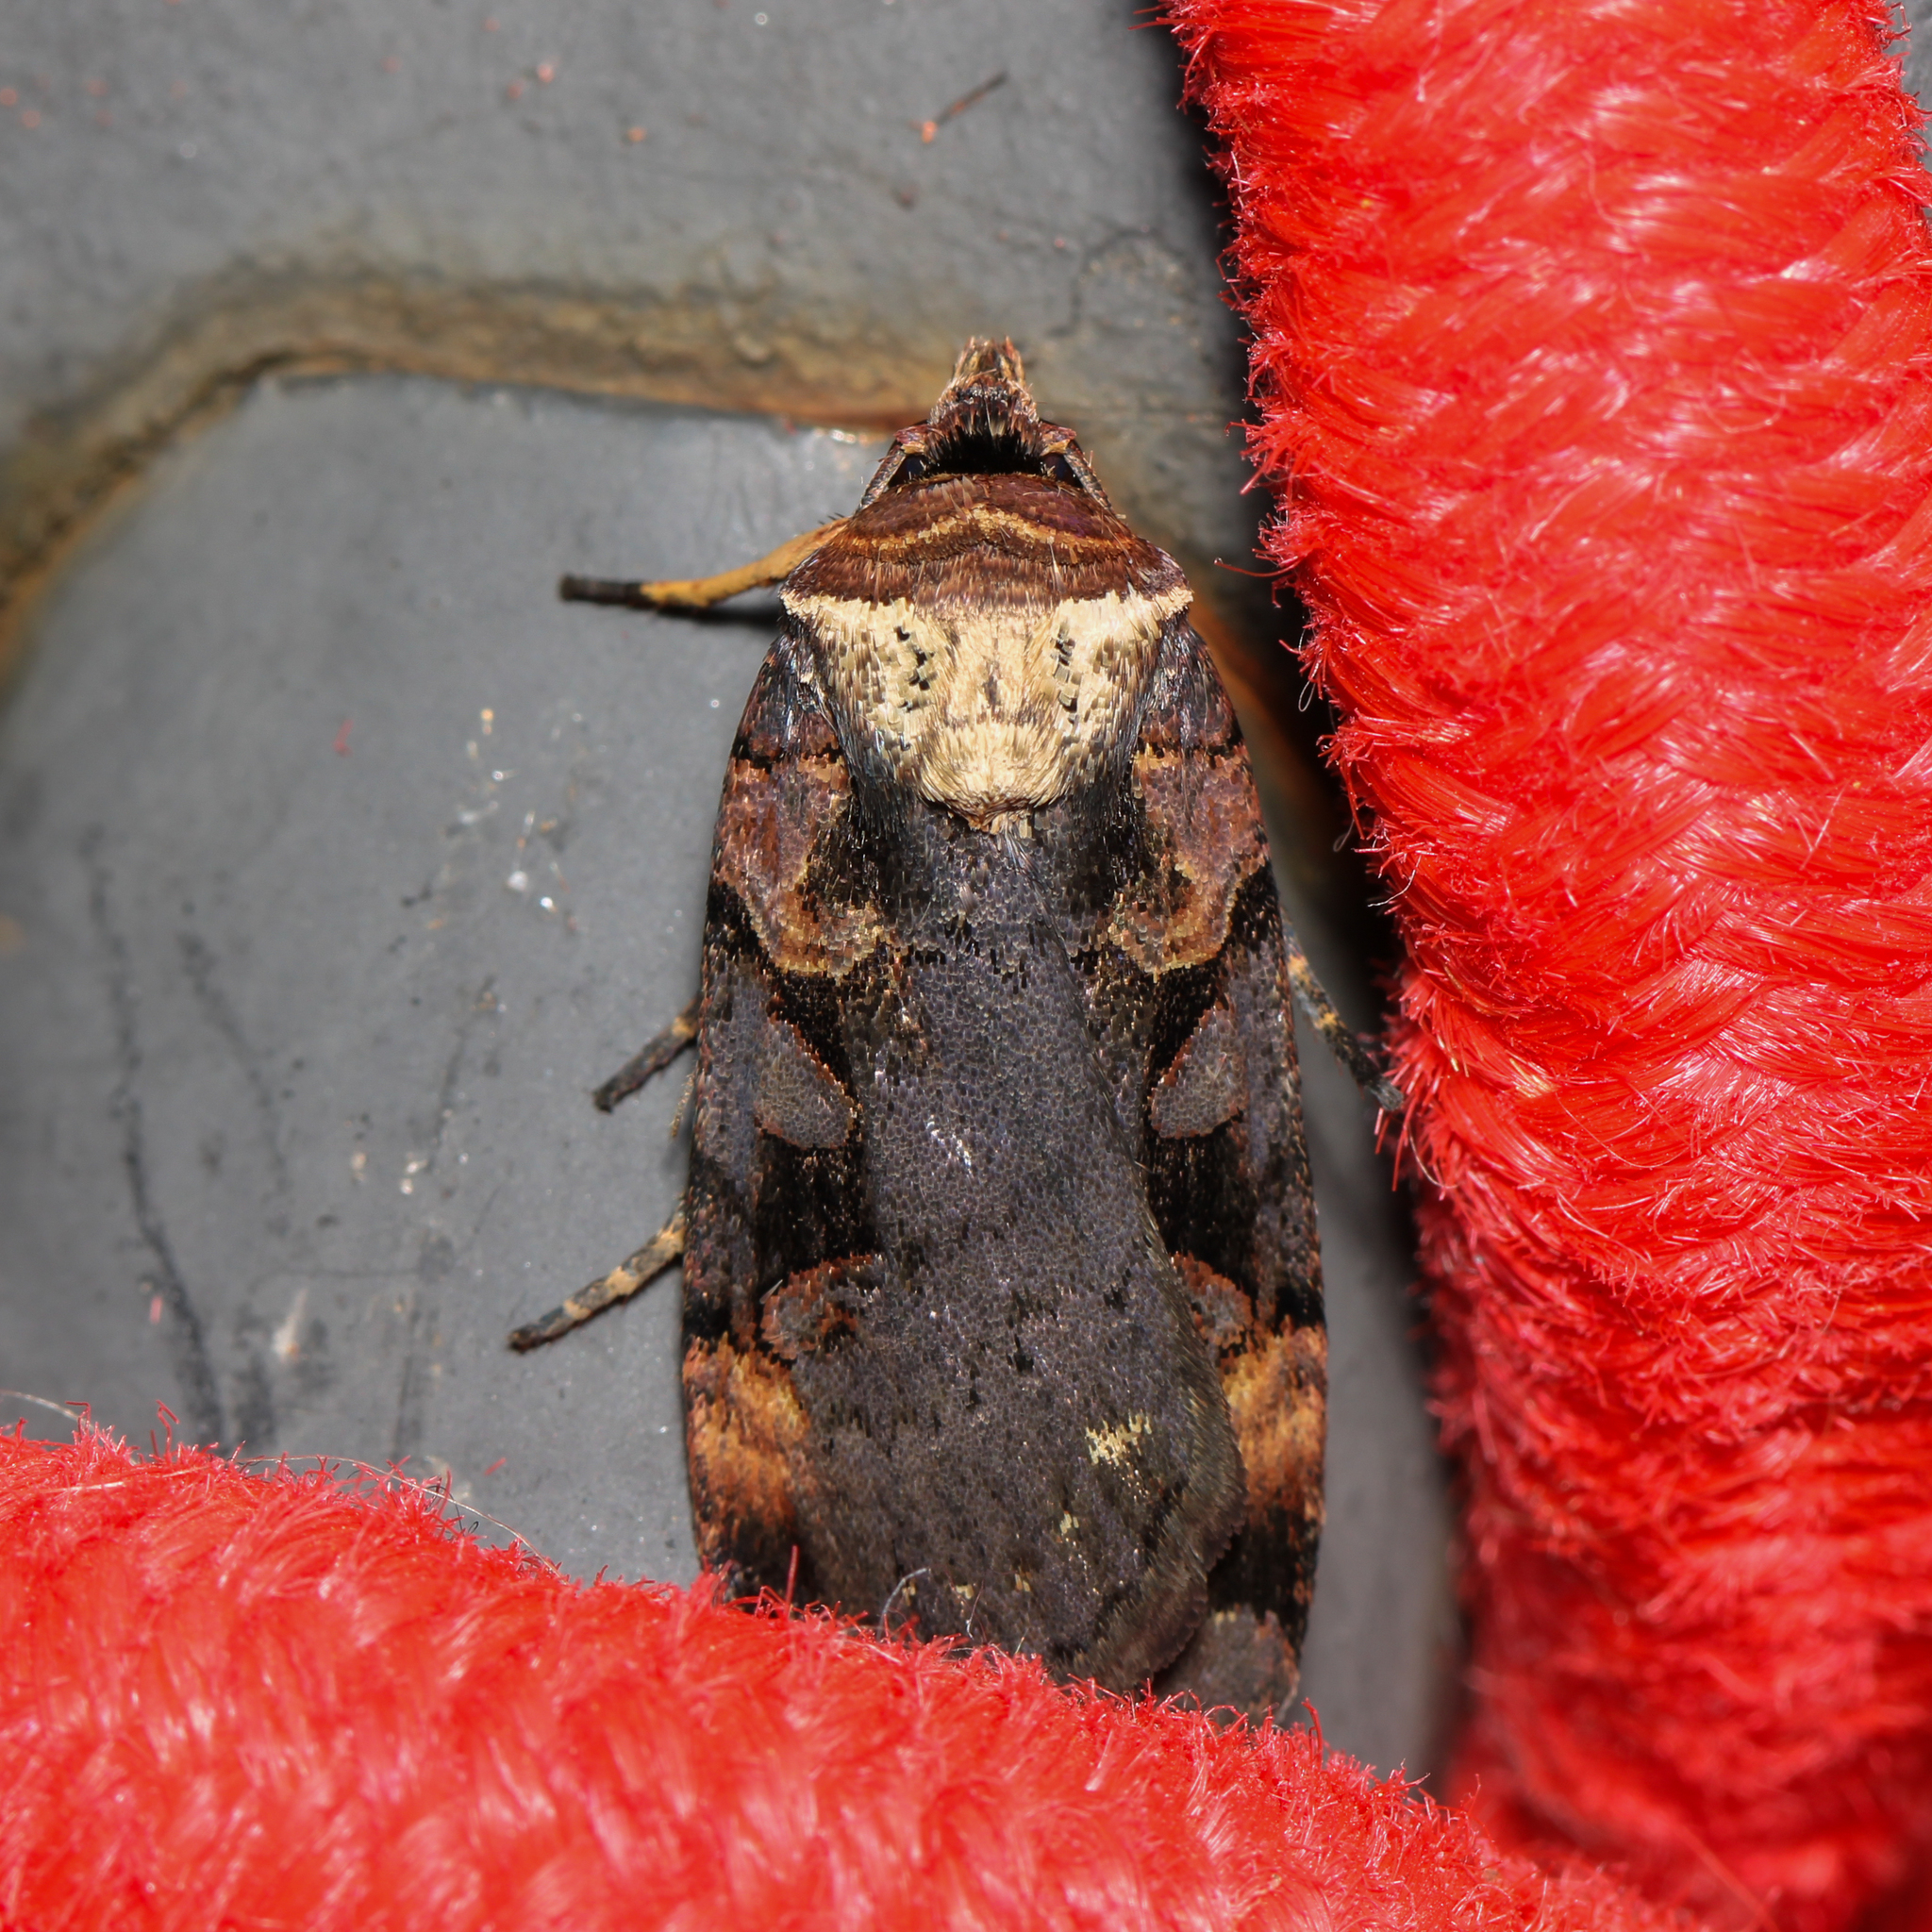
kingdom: Animalia
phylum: Arthropoda
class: Insecta
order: Lepidoptera
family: Noctuidae
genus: Pseudohermonassa
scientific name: Pseudohermonassa bicarnea
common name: Pink spotted dart
